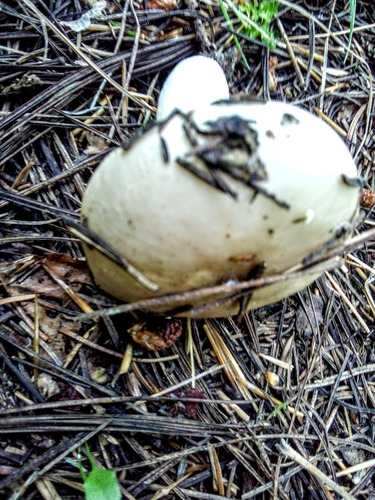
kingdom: Fungi
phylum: Basidiomycota
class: Agaricomycetes
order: Russulales
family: Russulaceae
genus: Russula
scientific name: Russula
